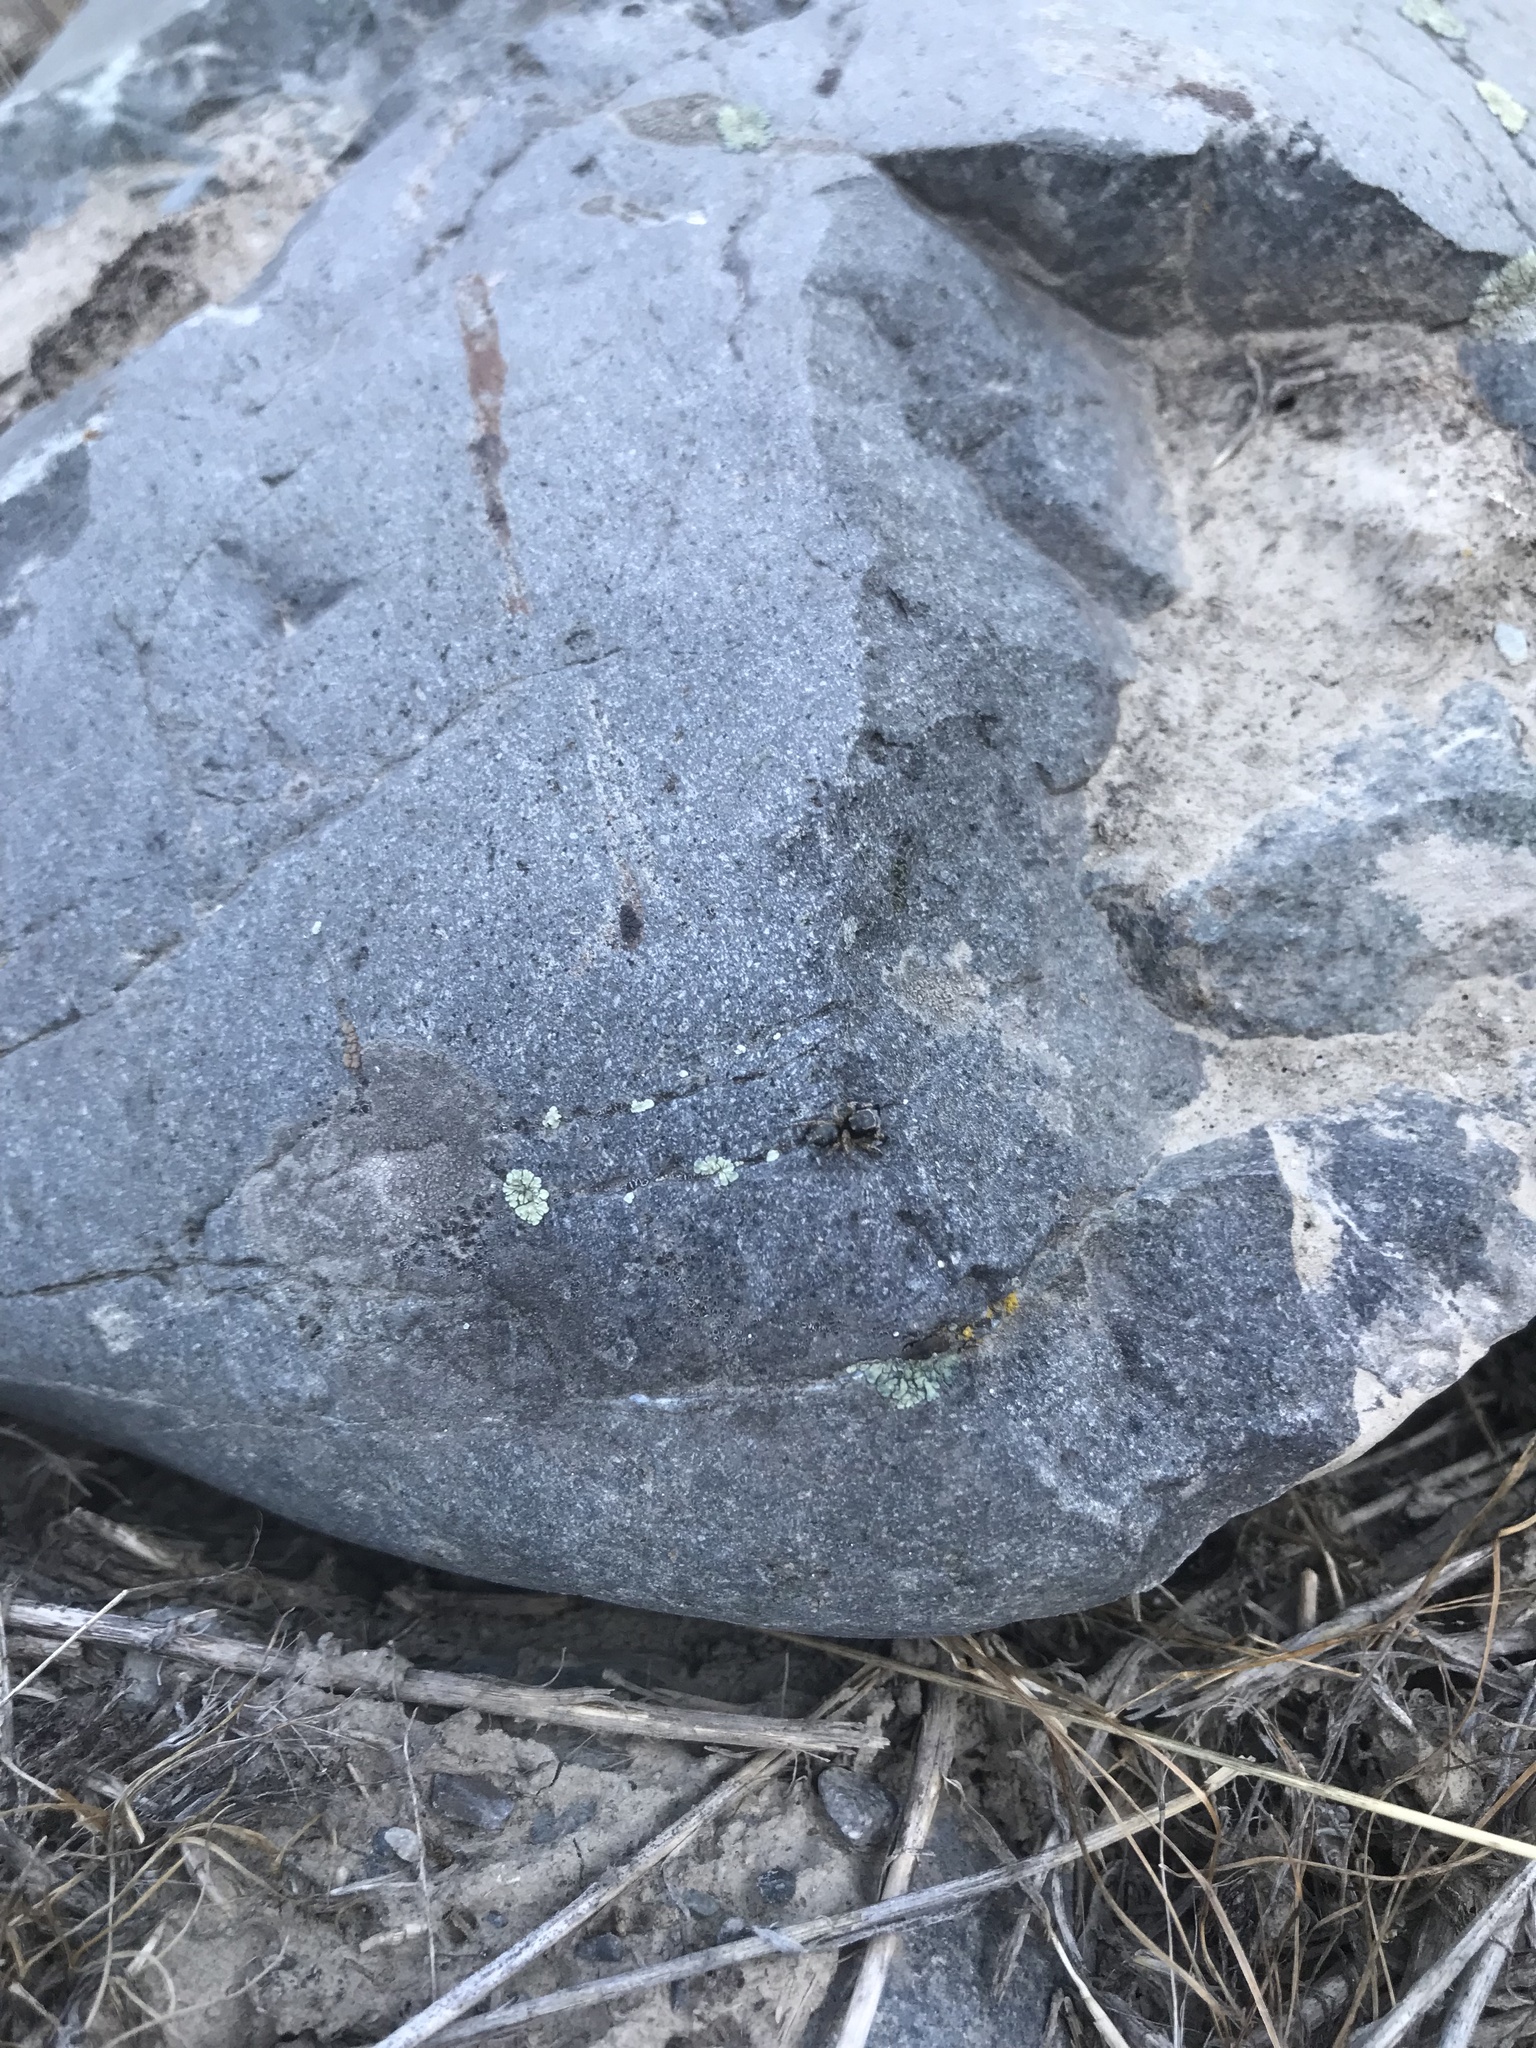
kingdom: Animalia
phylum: Arthropoda
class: Arachnida
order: Araneae
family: Salticidae
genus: Habronattus
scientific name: Habronattus hirsutus
